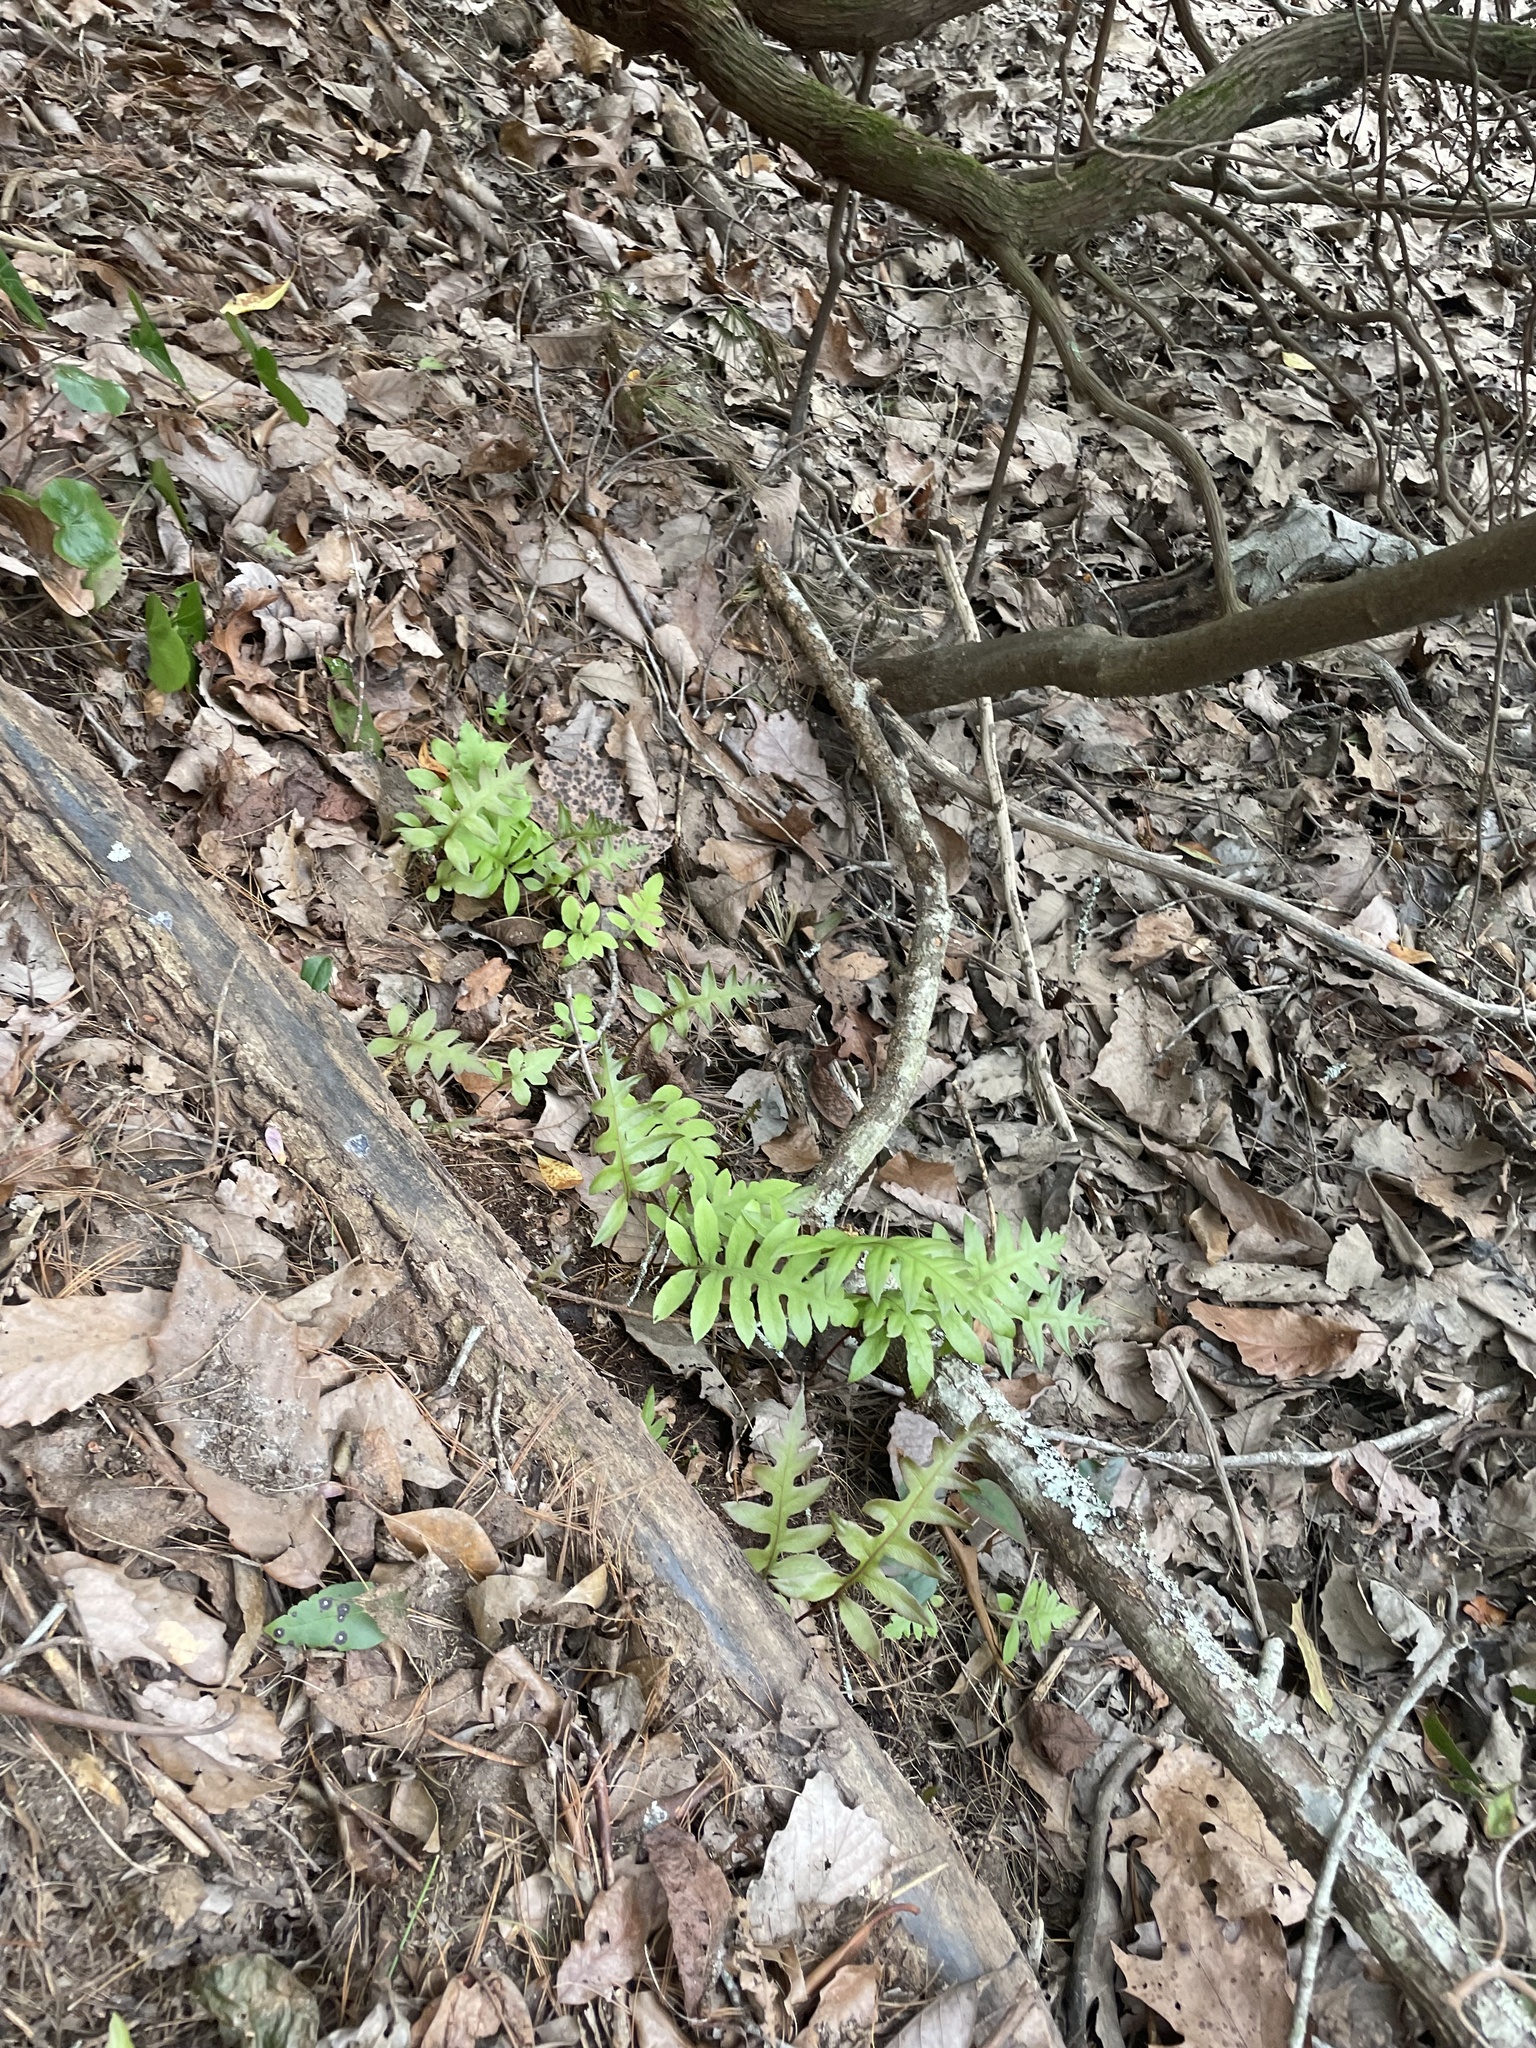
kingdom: Plantae
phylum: Tracheophyta
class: Polypodiopsida
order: Polypodiales
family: Blechnaceae
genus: Lorinseria
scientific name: Lorinseria areolata
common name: Dwarf chain fern
